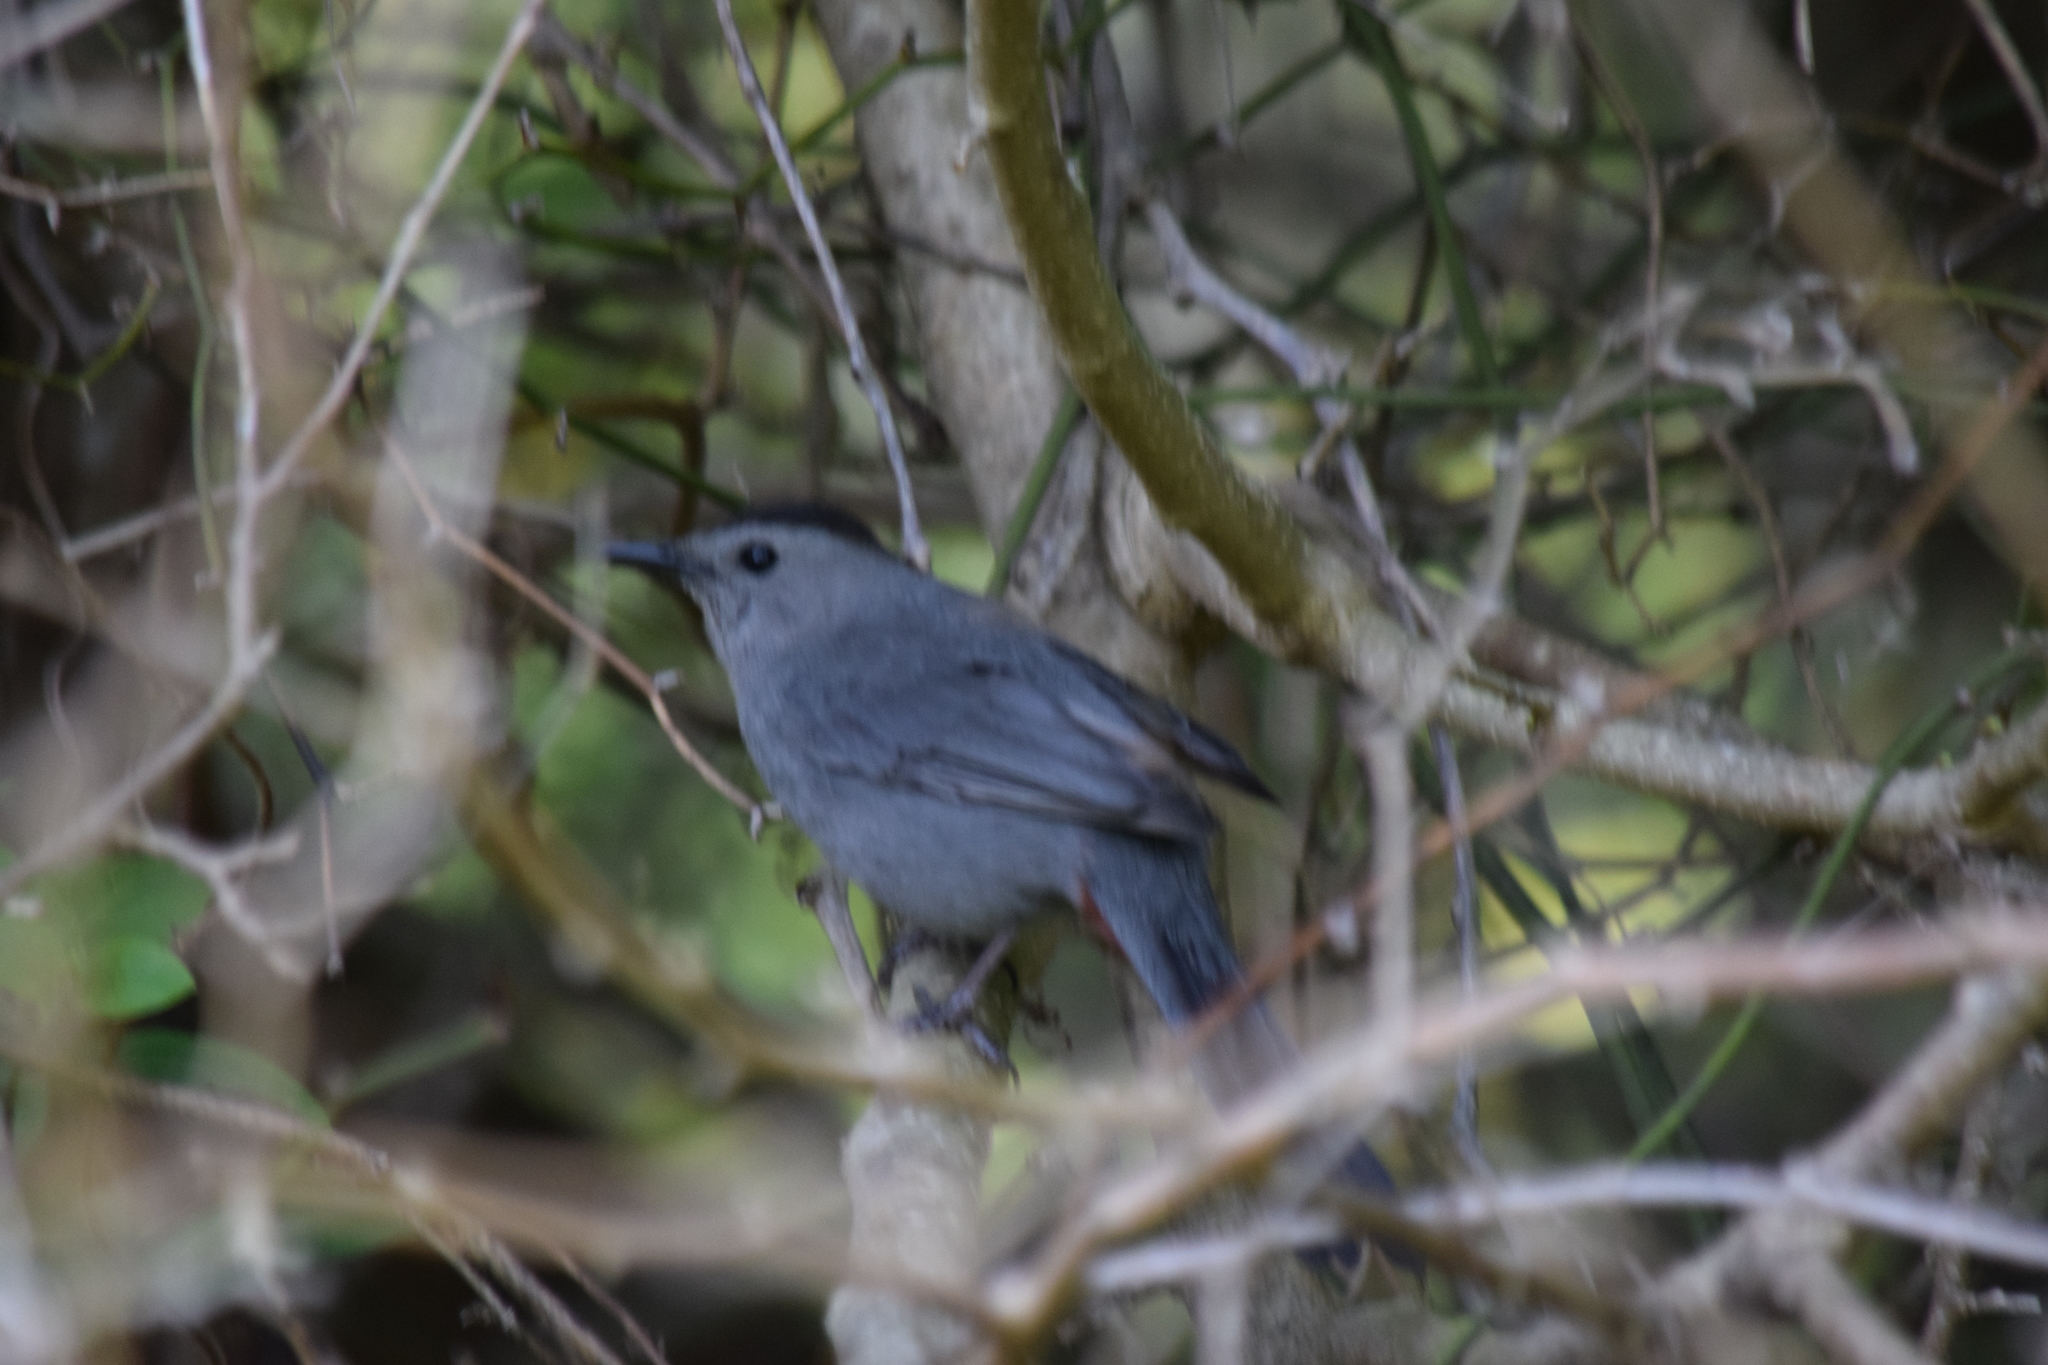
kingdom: Animalia
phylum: Chordata
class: Aves
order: Passeriformes
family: Mimidae
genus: Dumetella
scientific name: Dumetella carolinensis
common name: Gray catbird
